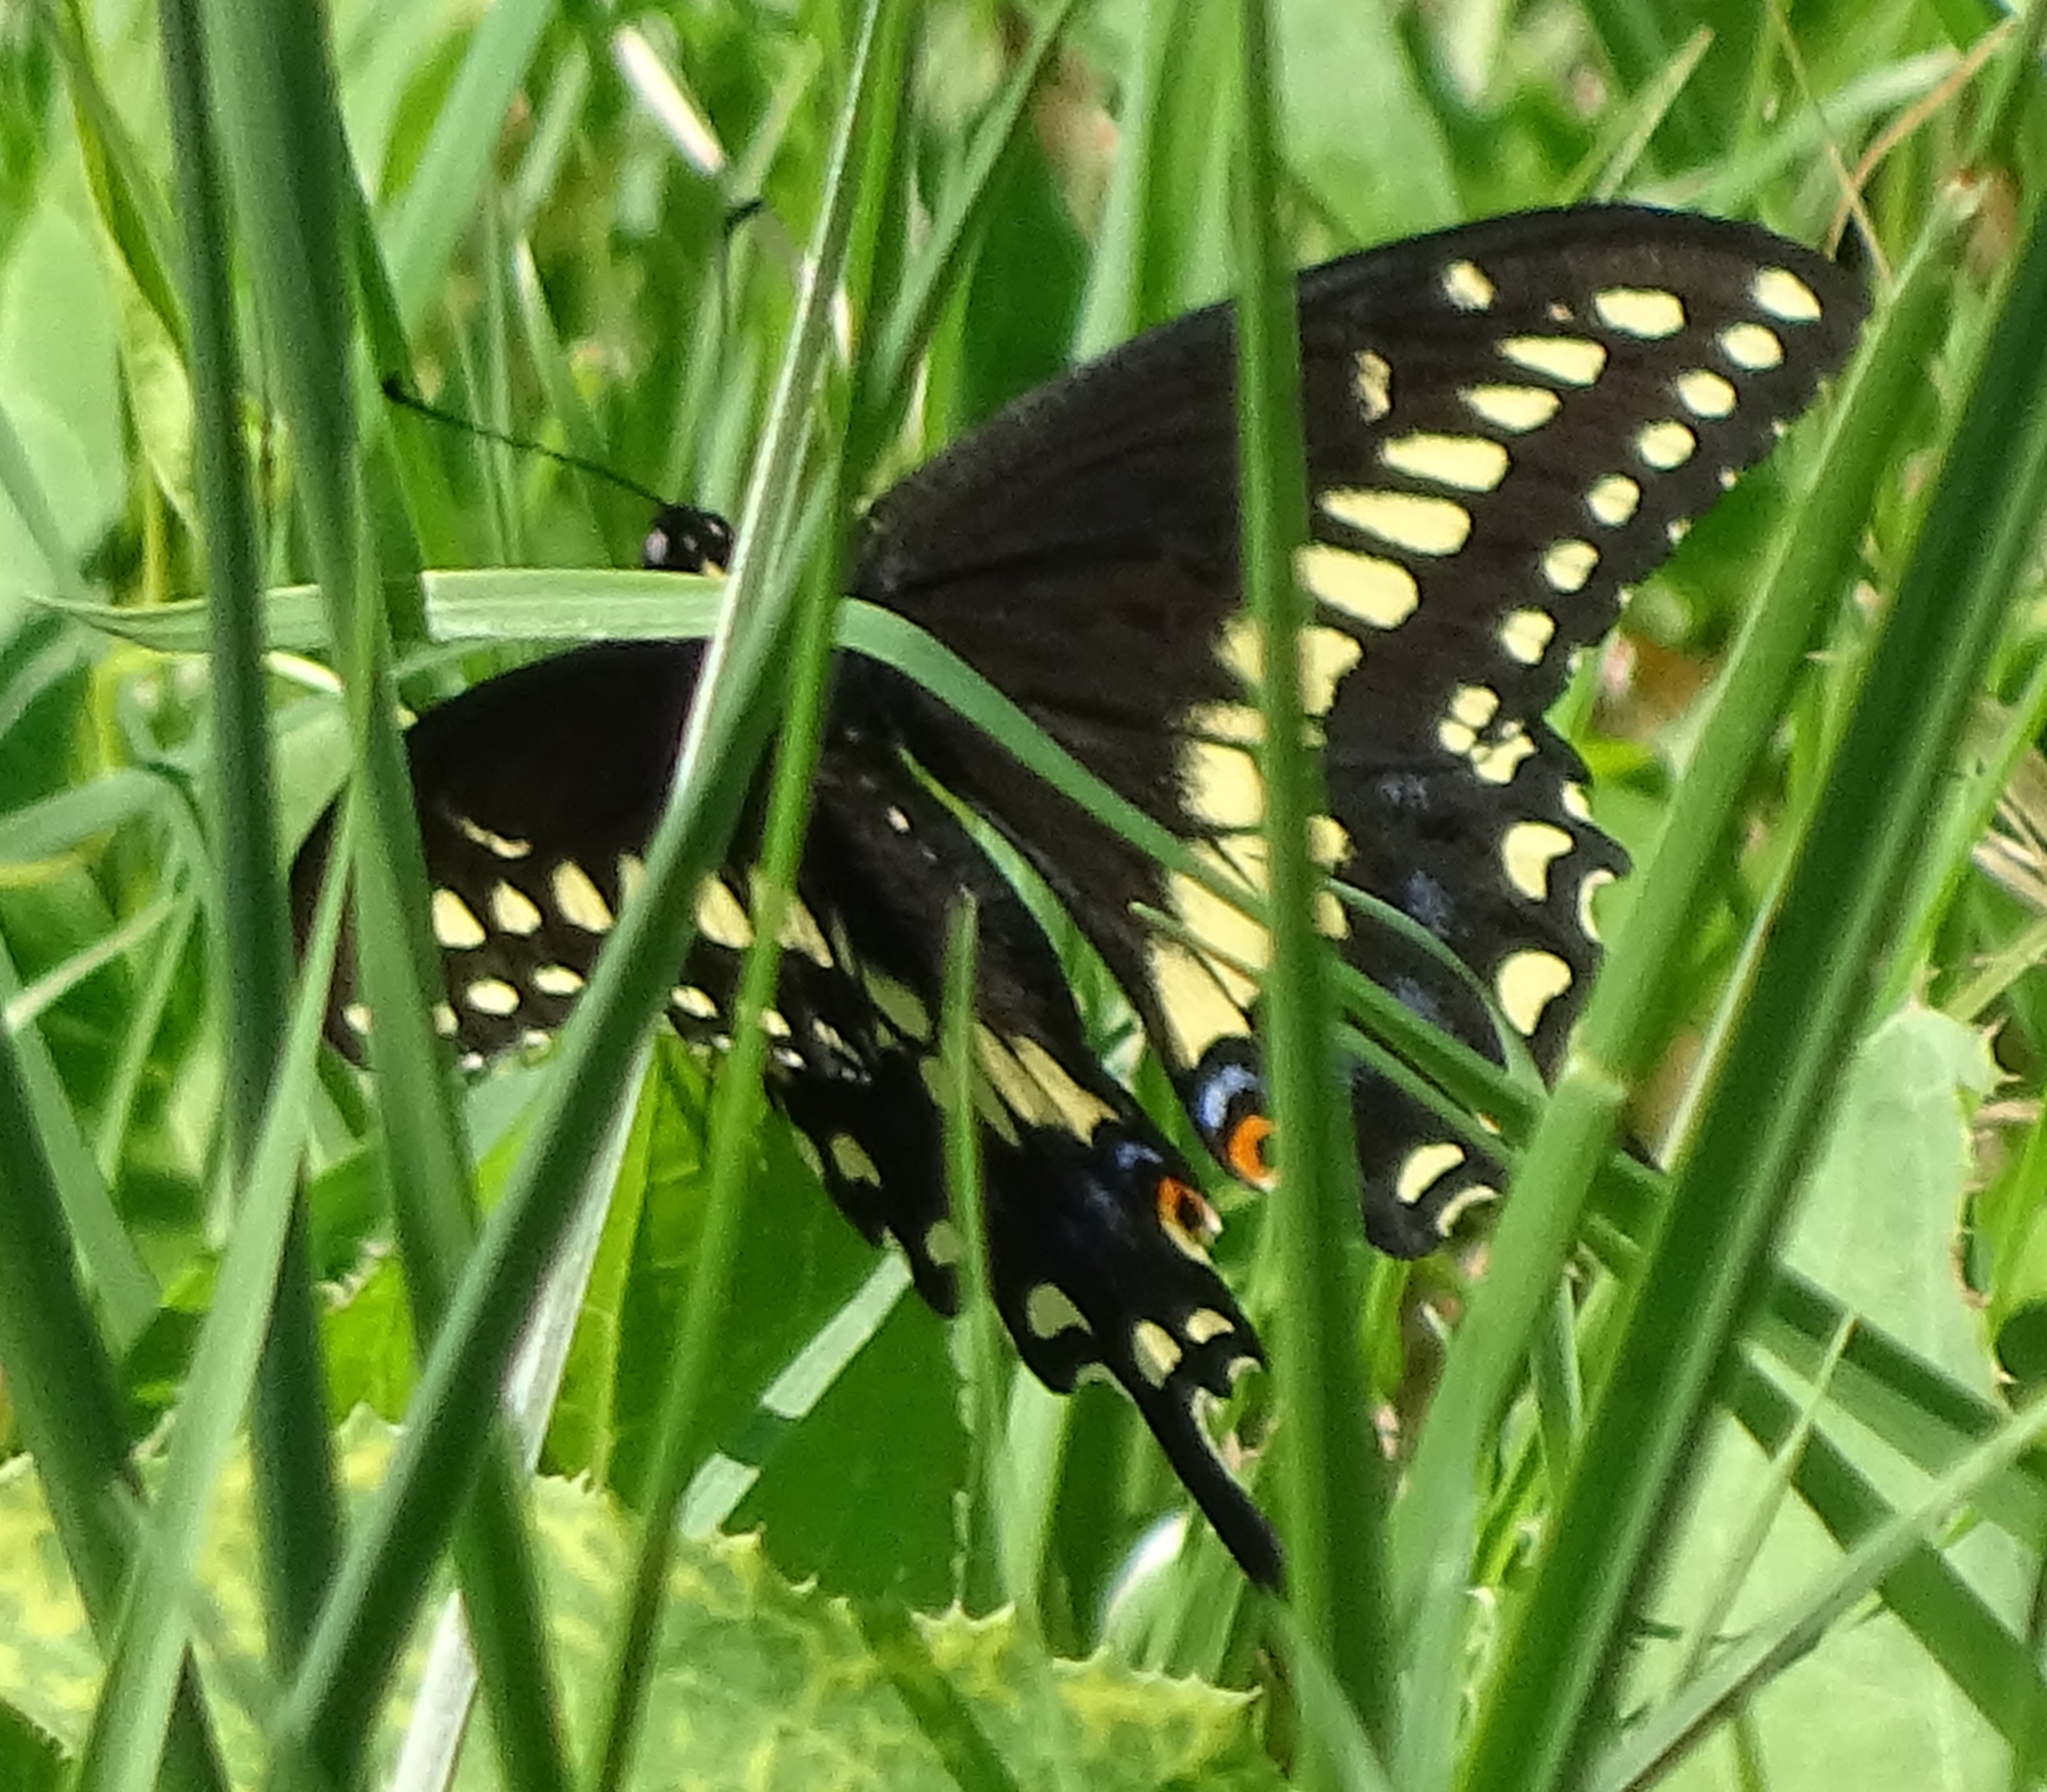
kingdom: Animalia
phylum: Arthropoda
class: Insecta
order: Lepidoptera
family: Papilionidae
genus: Papilio
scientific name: Papilio polyxenes
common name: Black swallowtail
